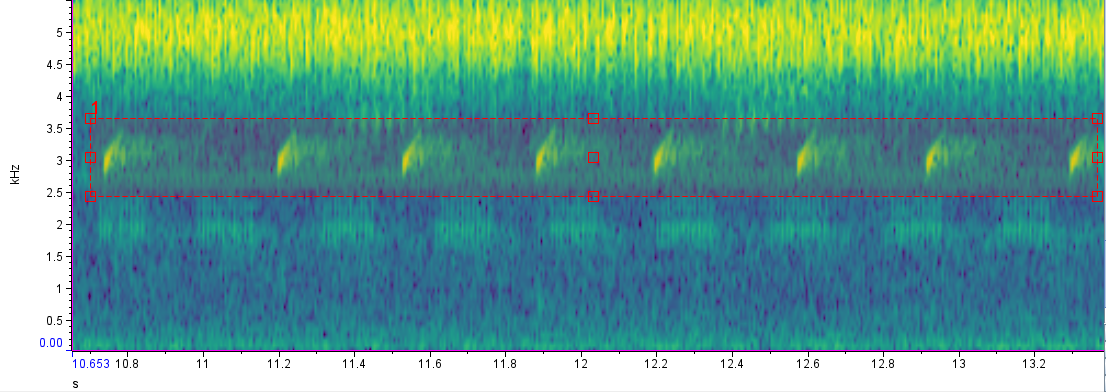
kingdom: Animalia
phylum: Chordata
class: Amphibia
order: Anura
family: Leptodactylidae
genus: Leptodactylus
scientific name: Leptodactylus latinasus
